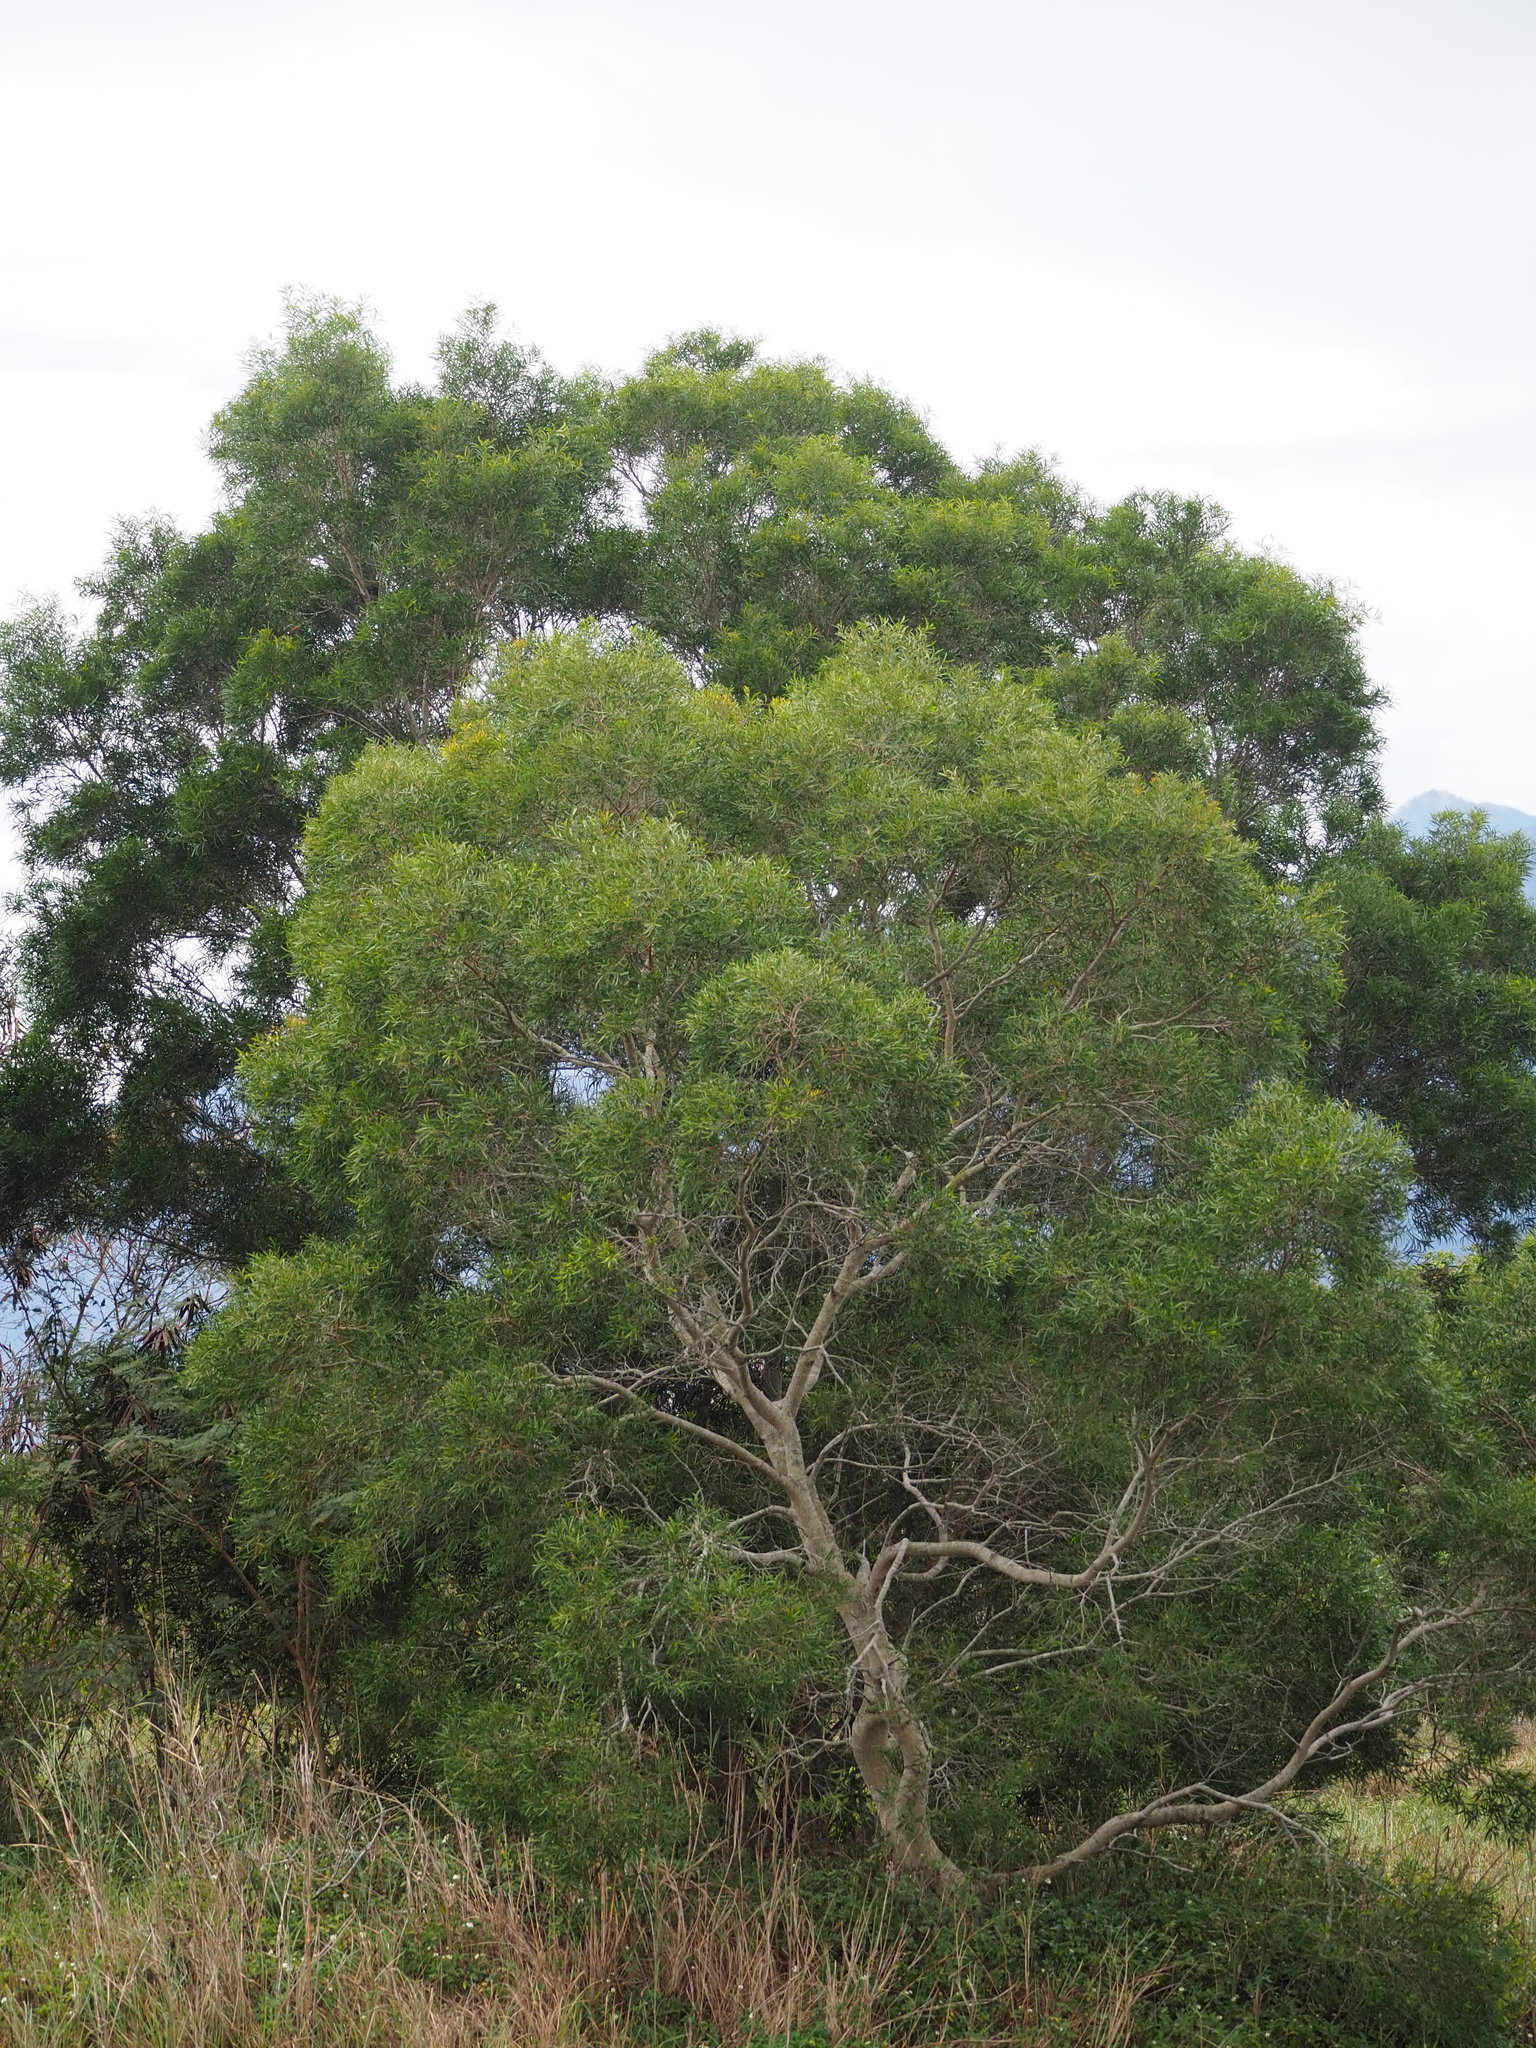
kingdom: Plantae
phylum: Tracheophyta
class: Magnoliopsida
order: Fabales
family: Fabaceae
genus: Acacia
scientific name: Acacia confusa
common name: Formosan koa
